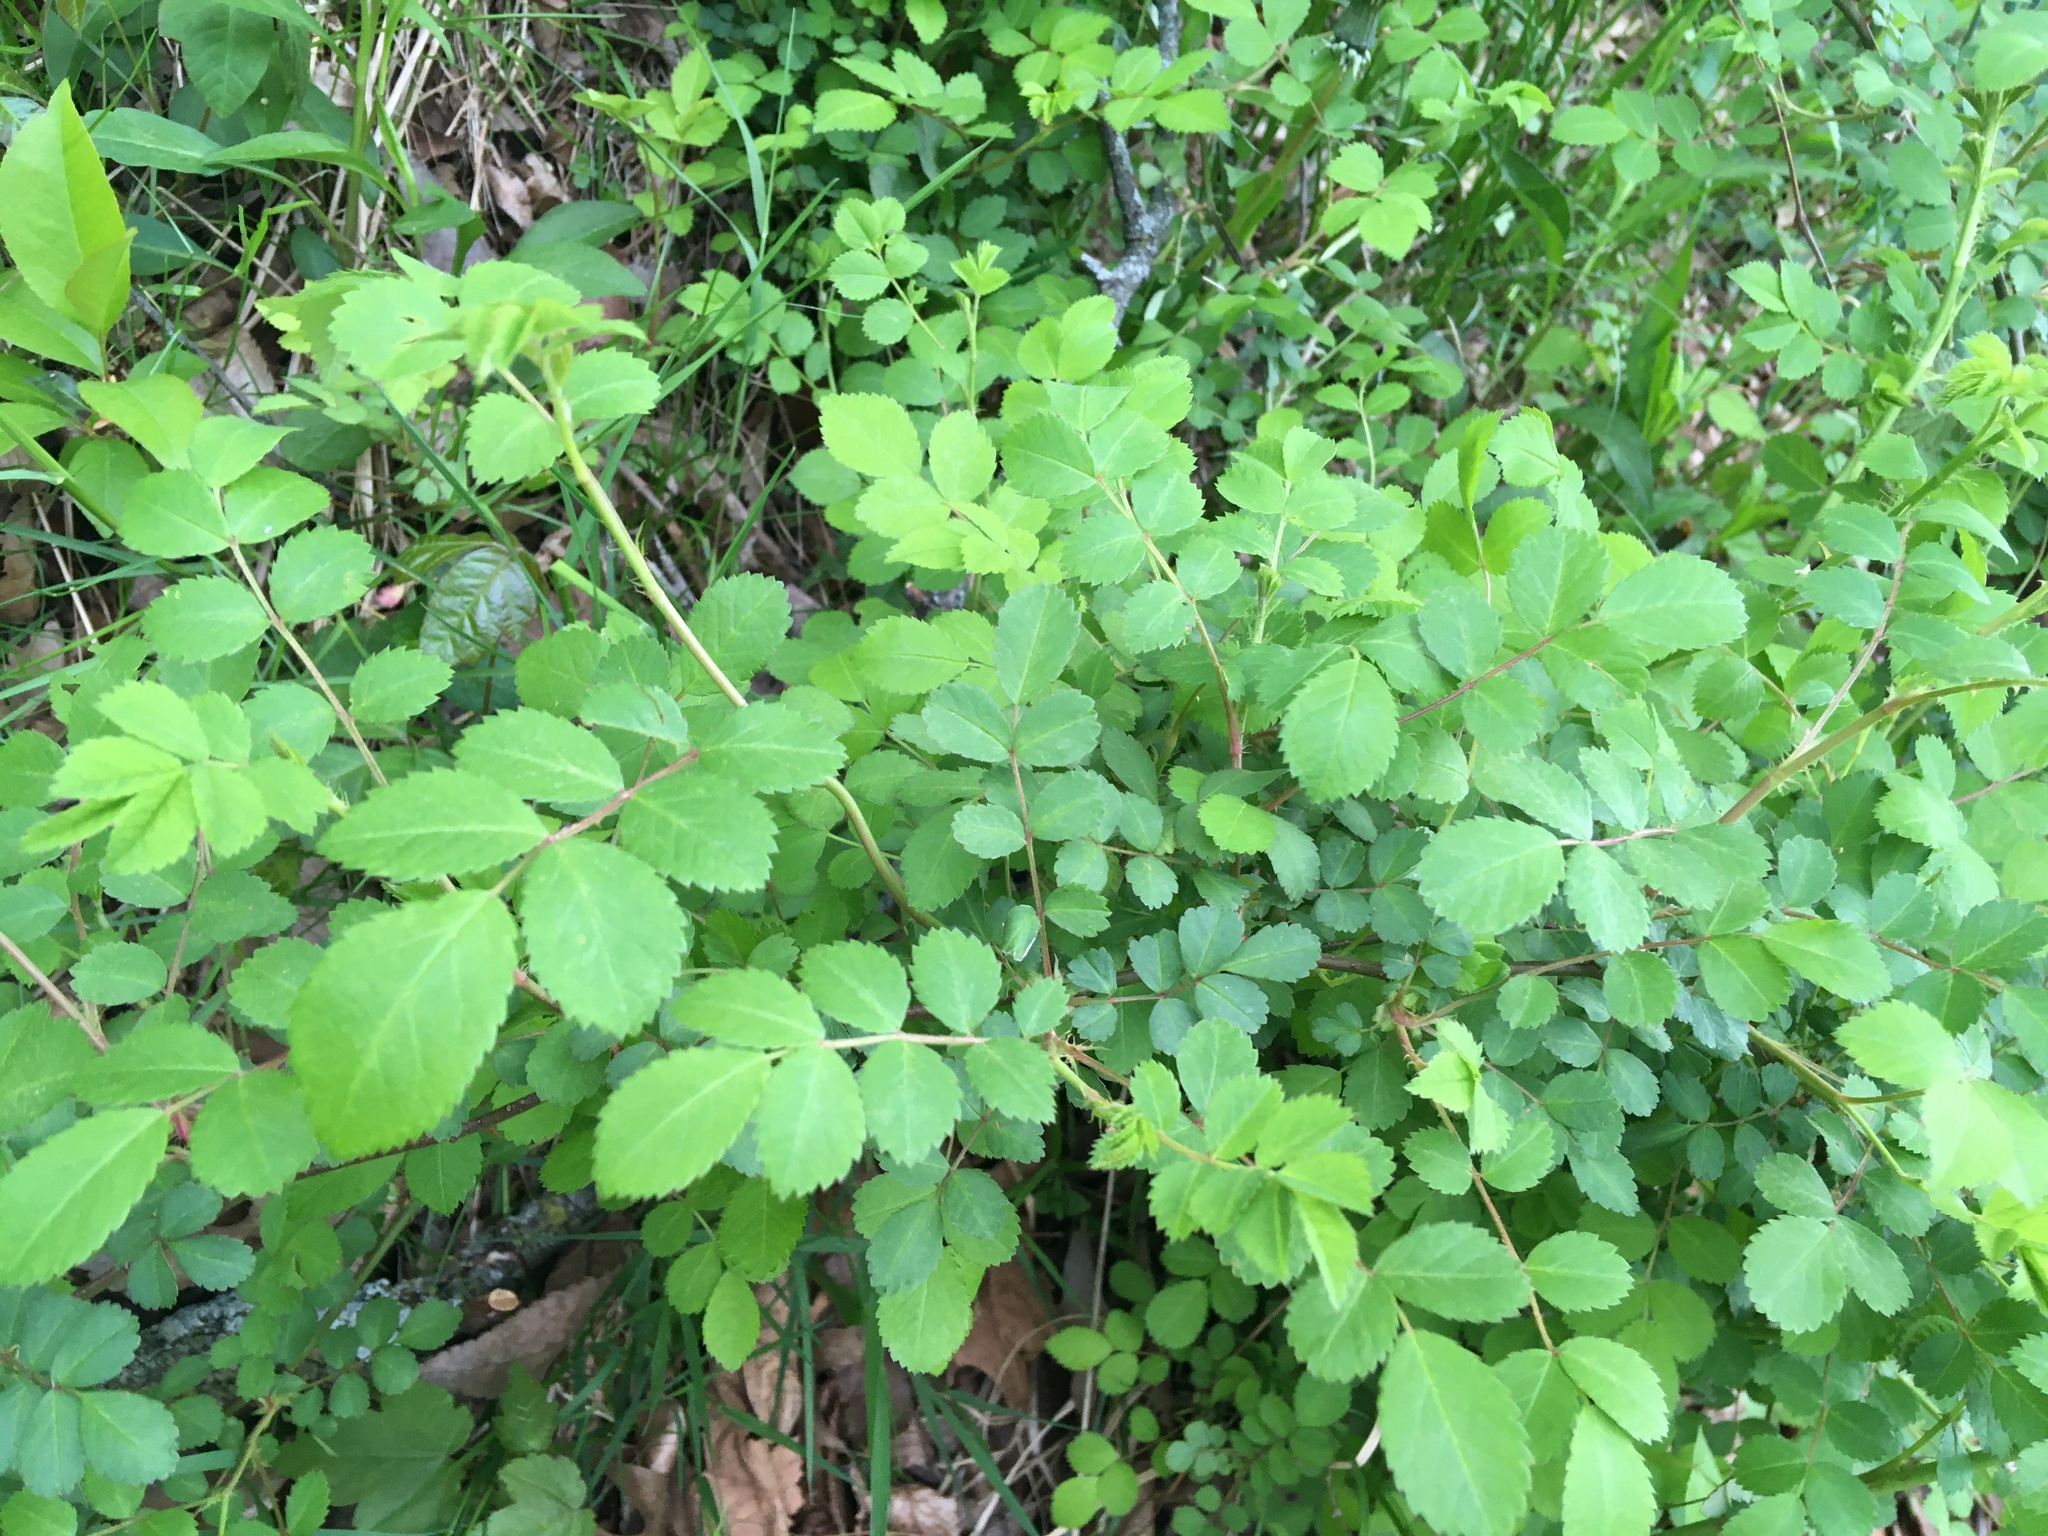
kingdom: Plantae
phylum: Tracheophyta
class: Magnoliopsida
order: Rosales
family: Rosaceae
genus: Rosa
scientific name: Rosa multiflora
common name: Multiflora rose
